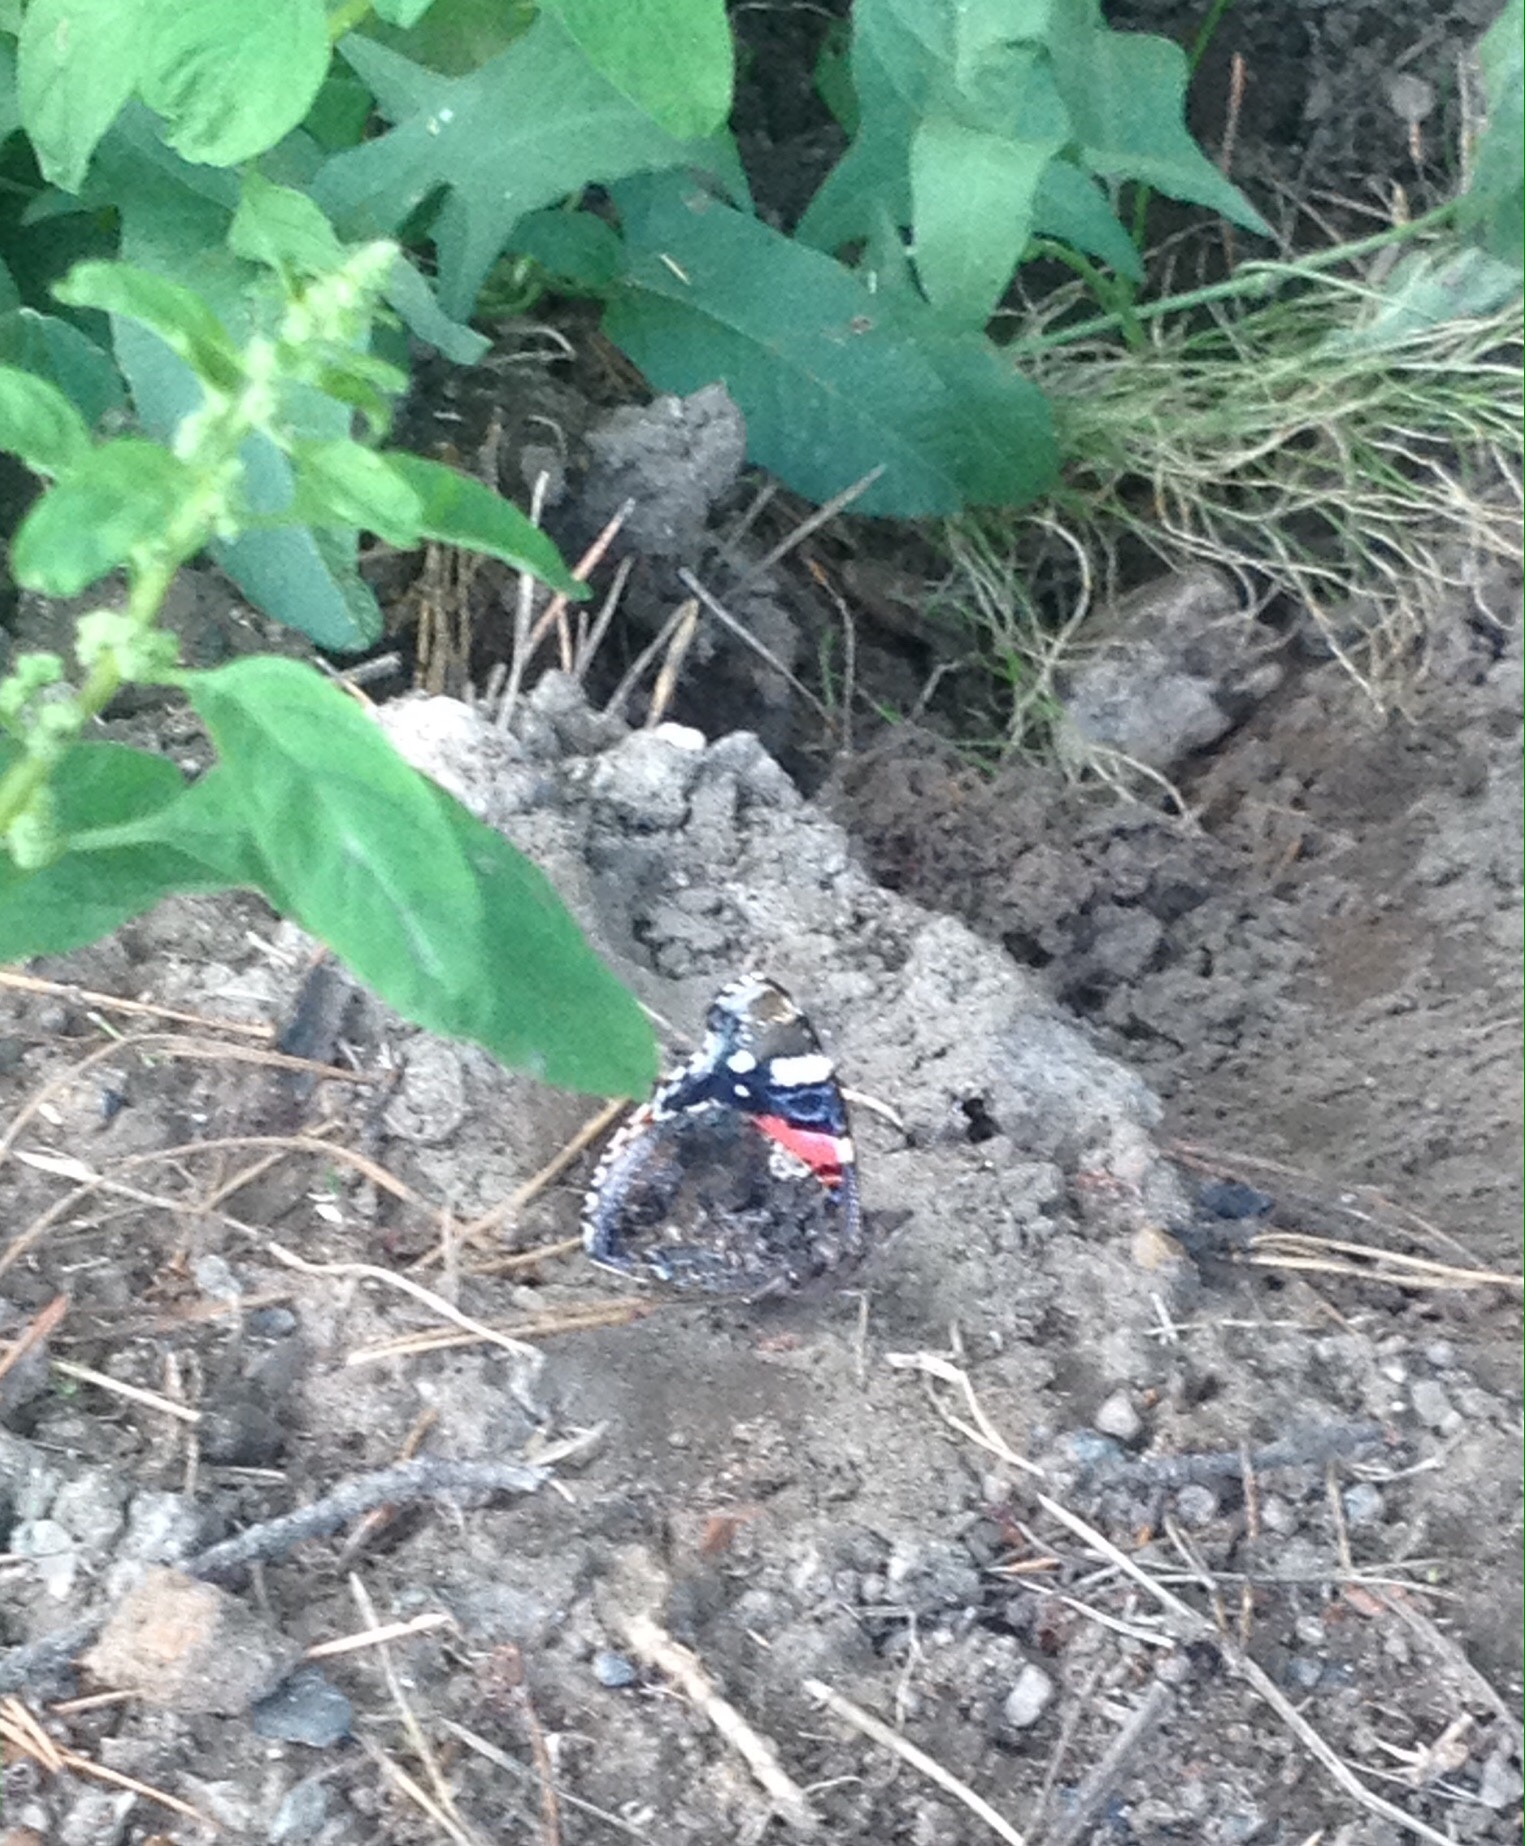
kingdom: Animalia
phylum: Arthropoda
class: Insecta
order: Lepidoptera
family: Nymphalidae
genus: Vanessa
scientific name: Vanessa atalanta
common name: Red admiral
